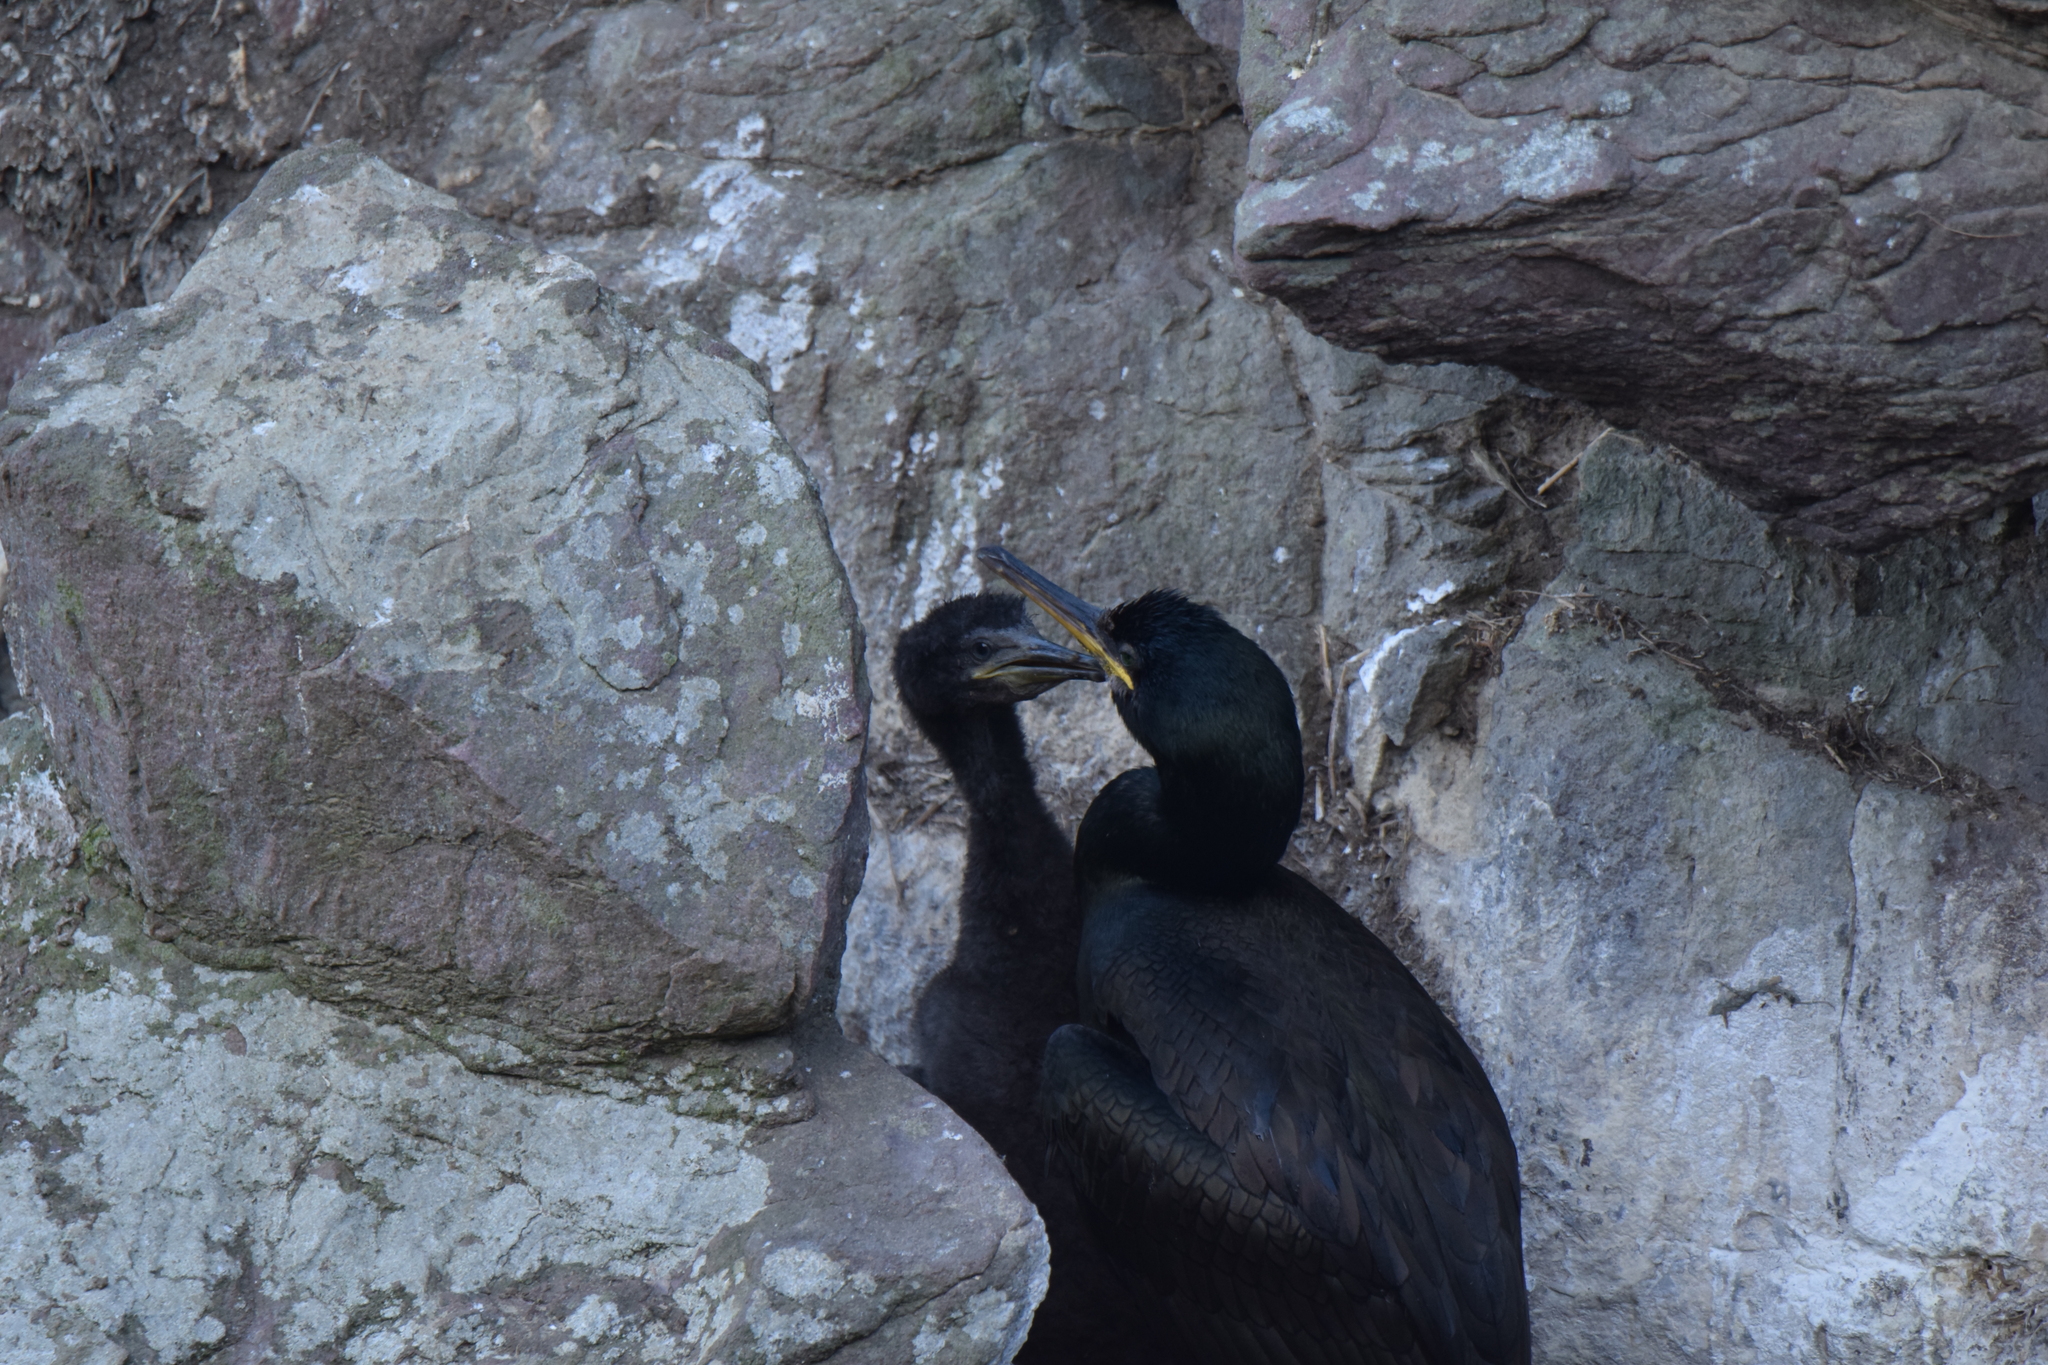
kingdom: Animalia
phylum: Chordata
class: Aves
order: Suliformes
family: Phalacrocoracidae
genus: Phalacrocorax
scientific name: Phalacrocorax aristotelis
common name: European shag
